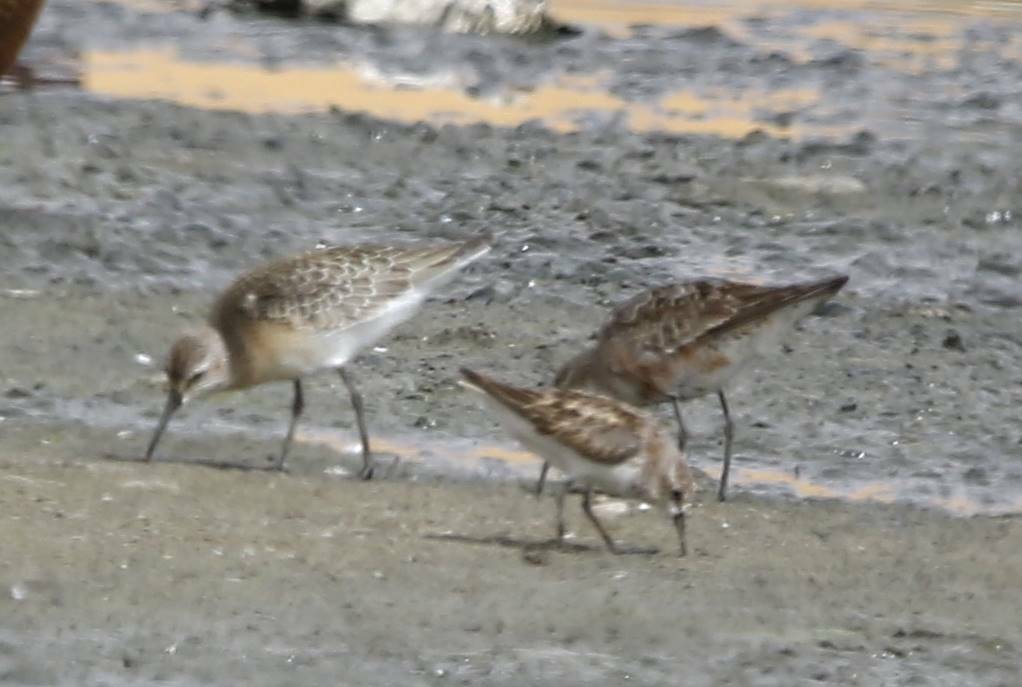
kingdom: Animalia
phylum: Chordata
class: Aves
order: Charadriiformes
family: Scolopacidae
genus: Calidris
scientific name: Calidris ferruginea
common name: Curlew sandpiper
